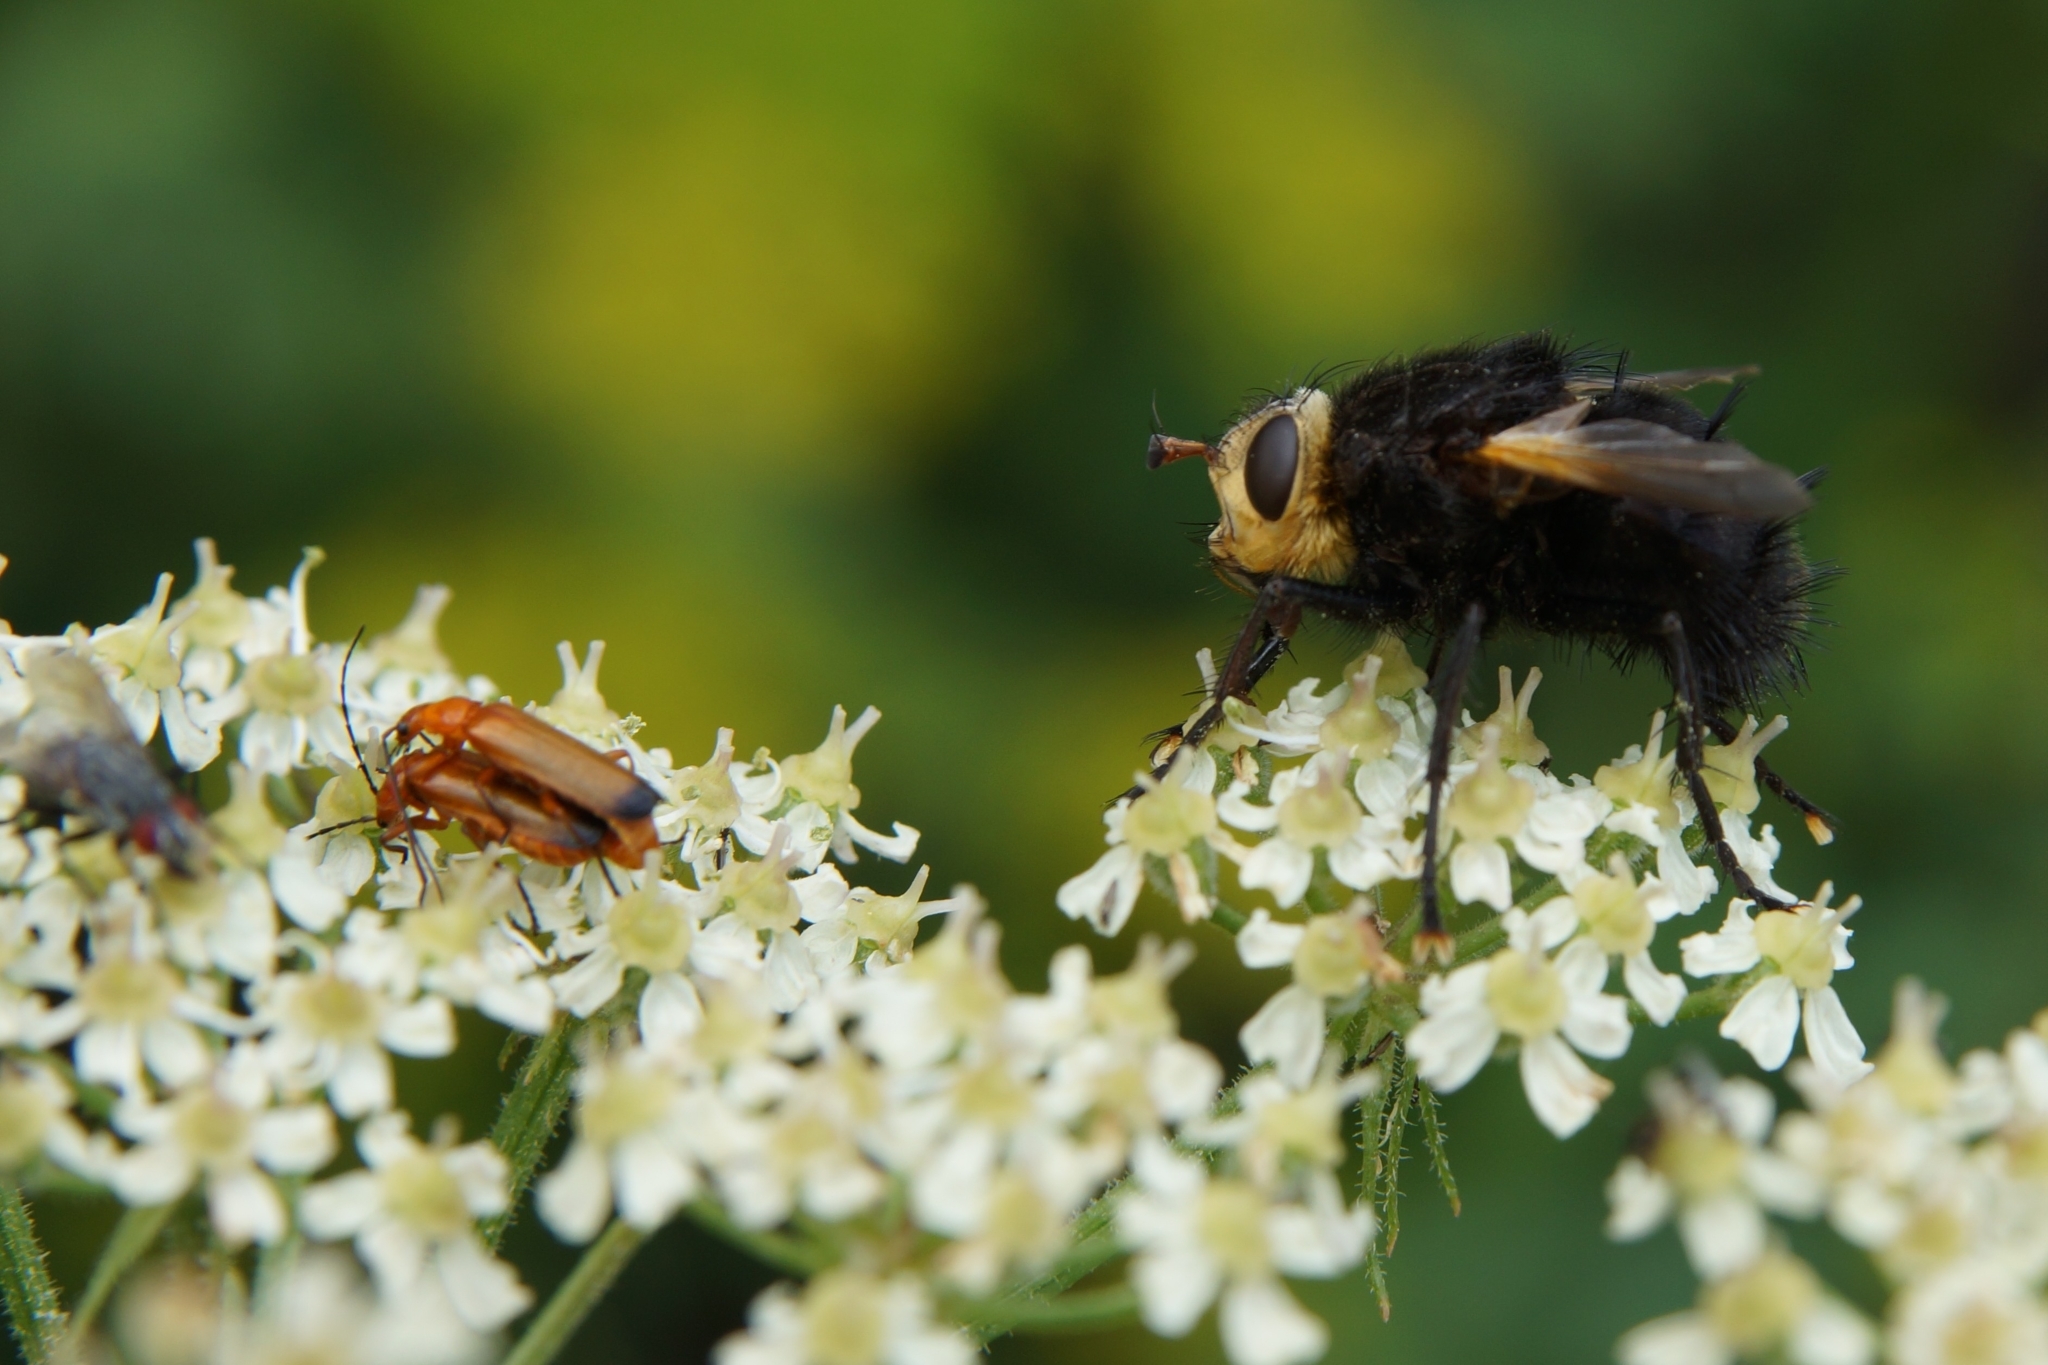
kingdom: Animalia
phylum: Arthropoda
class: Insecta
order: Diptera
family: Tachinidae
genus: Tachina
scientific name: Tachina grossa
